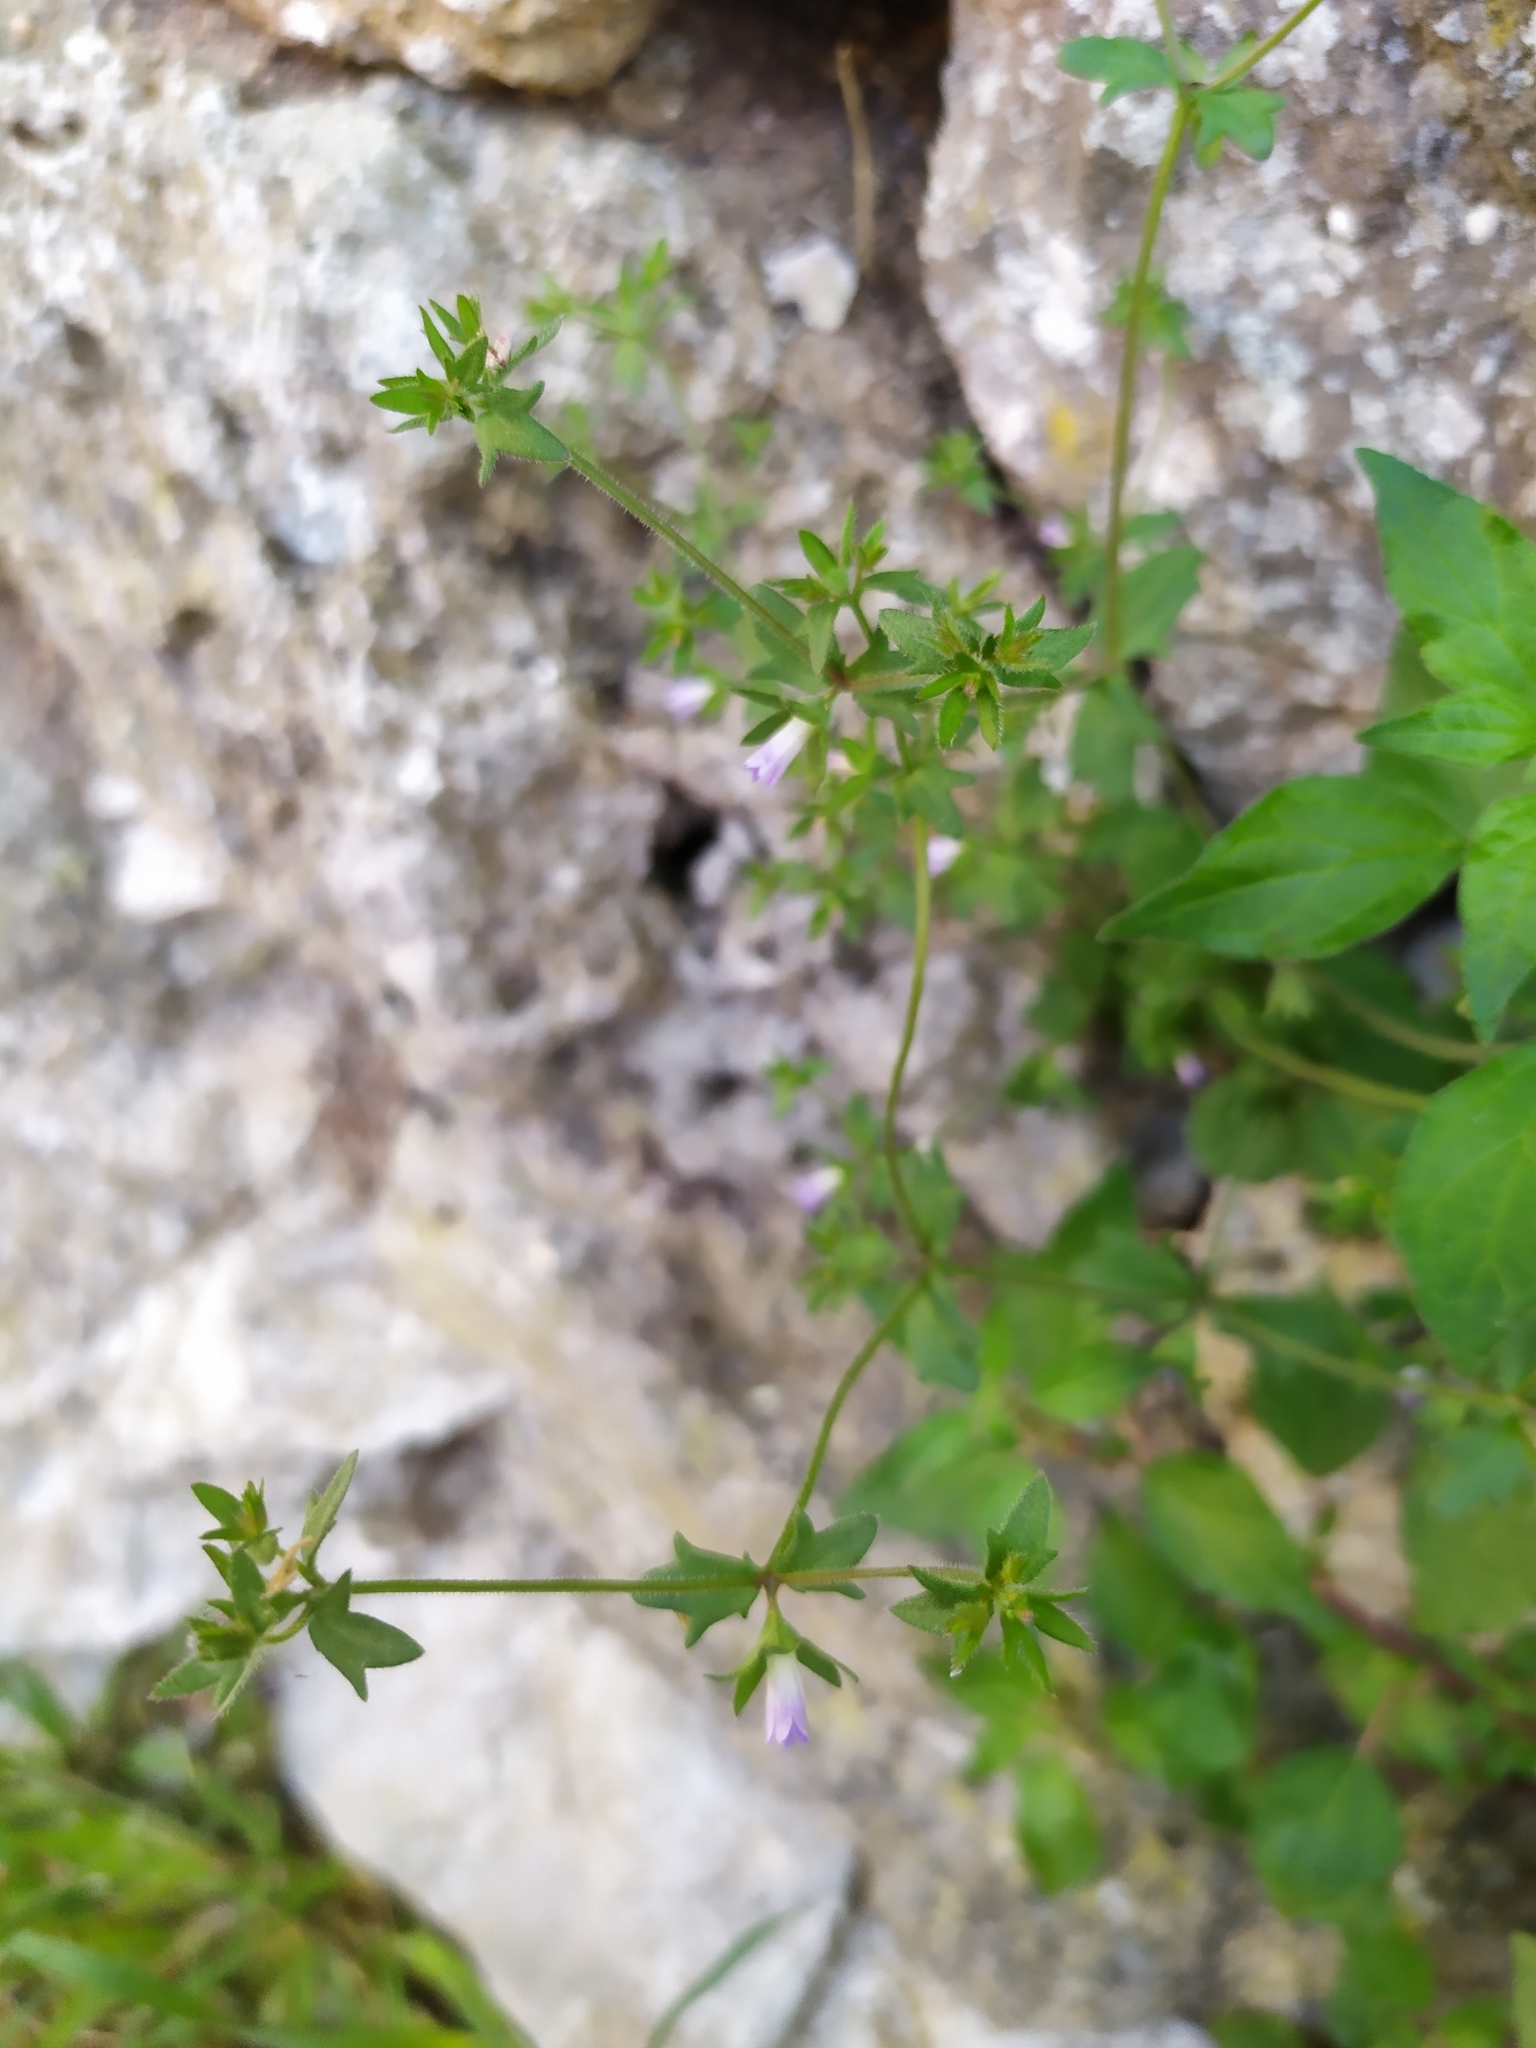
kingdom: Plantae
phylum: Tracheophyta
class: Magnoliopsida
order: Asterales
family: Campanulaceae
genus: Campanula
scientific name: Campanula erinus
